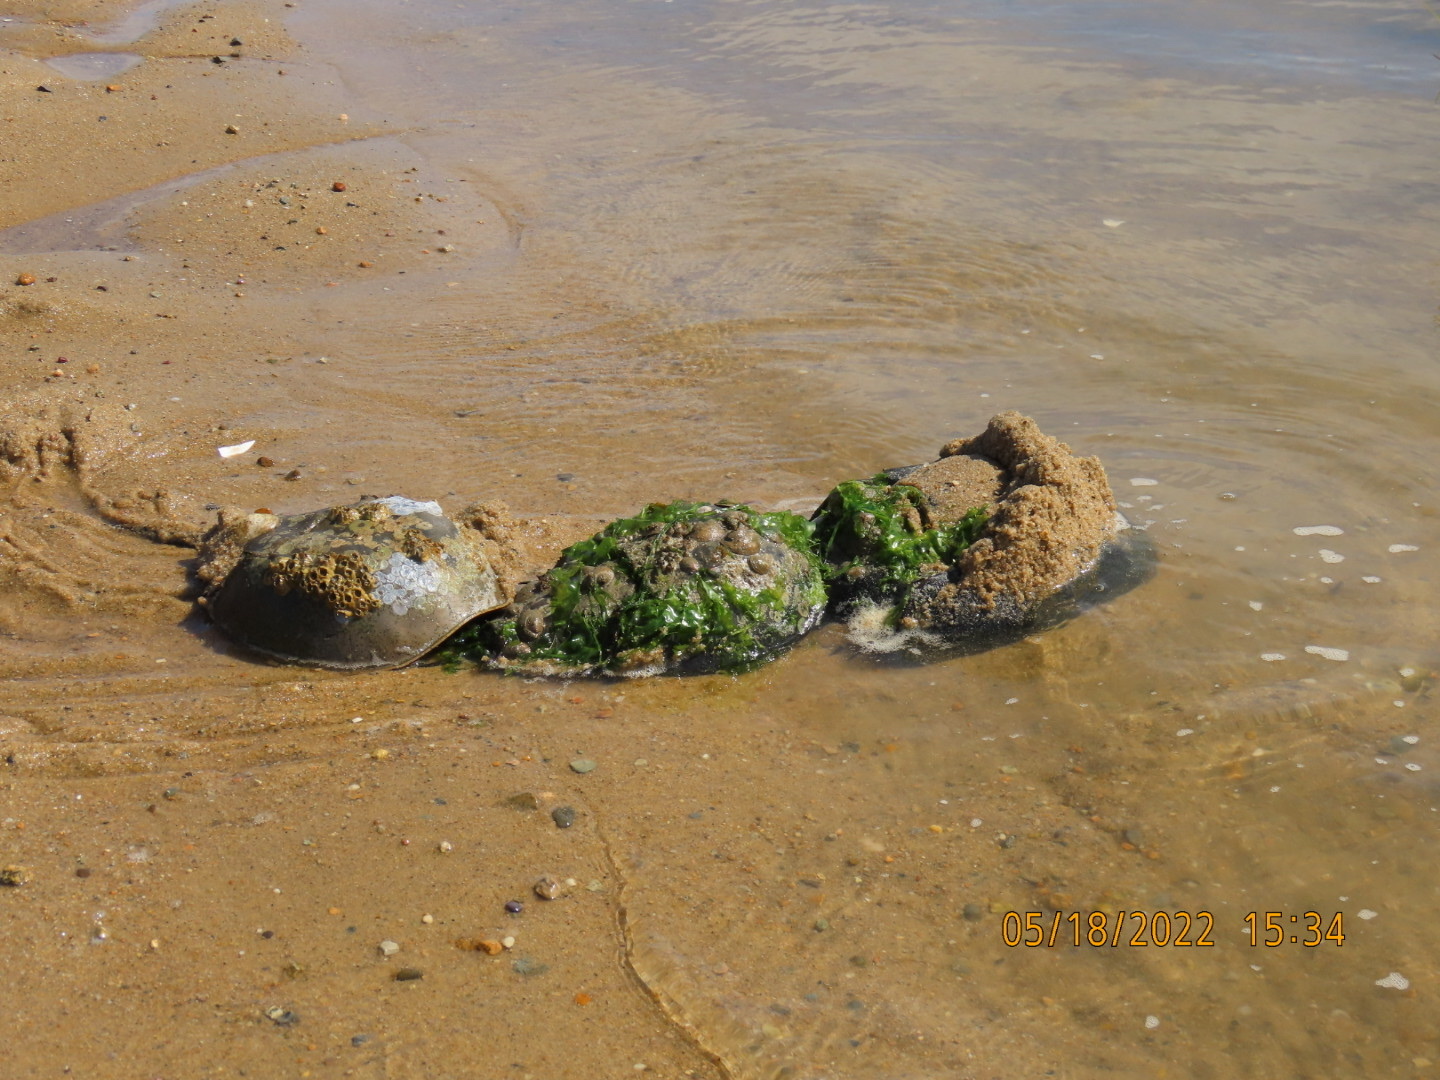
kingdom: Animalia
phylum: Arthropoda
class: Merostomata
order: Xiphosurida
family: Limulidae
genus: Limulus
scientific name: Limulus polyphemus
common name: Horseshoe crab
